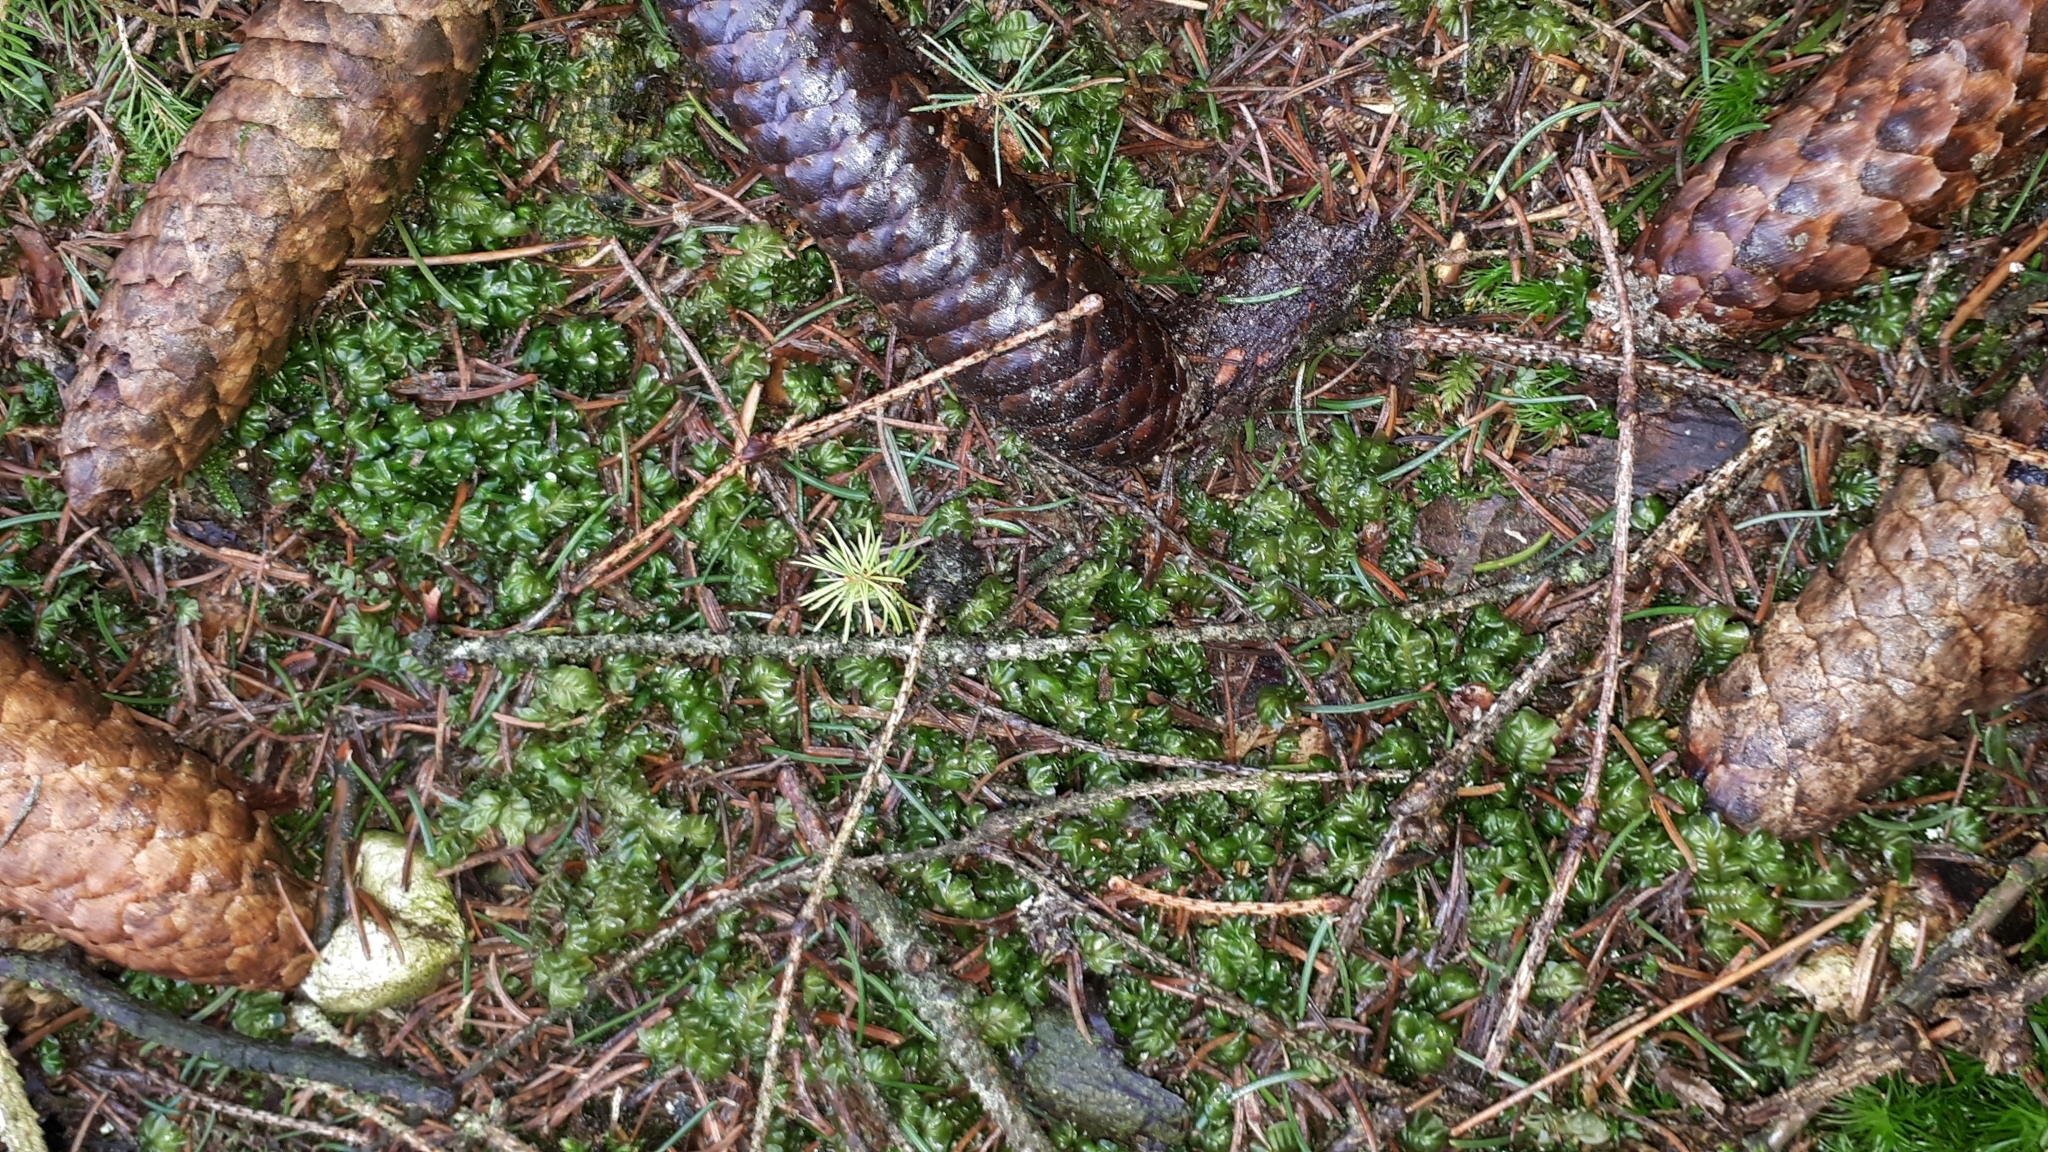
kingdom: Plantae
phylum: Marchantiophyta
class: Jungermanniopsida
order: Jungermanniales
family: Plagiochilaceae
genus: Plagiochila
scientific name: Plagiochila asplenioides
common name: Greater featherwort
